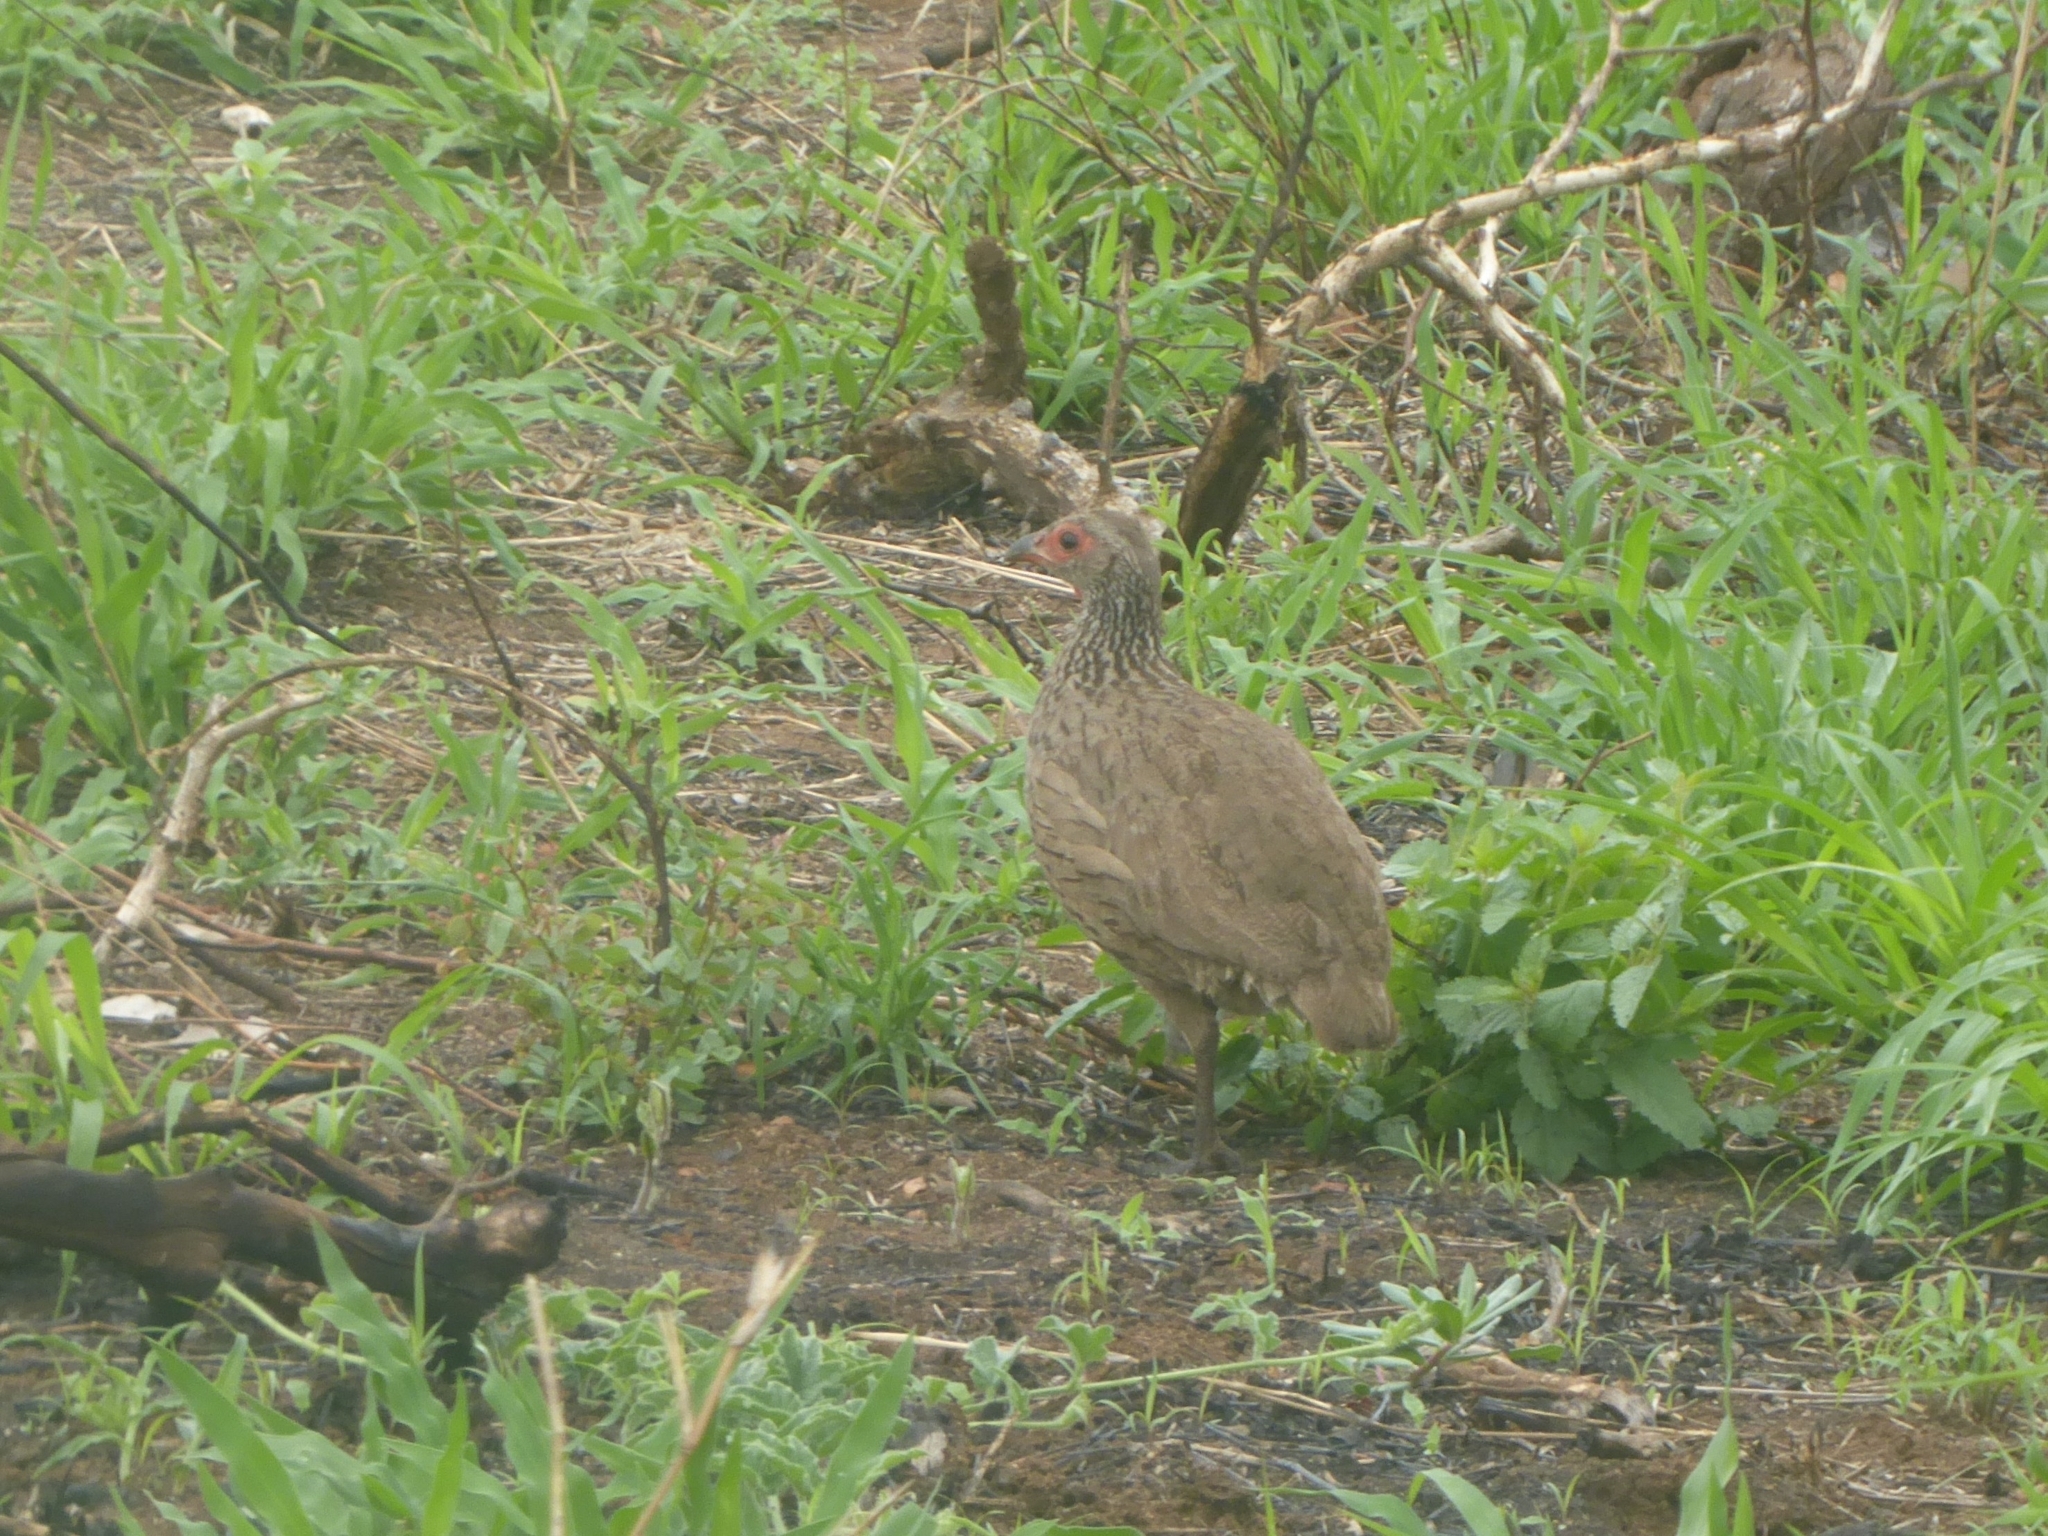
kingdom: Animalia
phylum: Chordata
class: Aves
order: Galliformes
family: Phasianidae
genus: Pternistis
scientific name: Pternistis swainsonii
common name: Swainson's spurfowl
